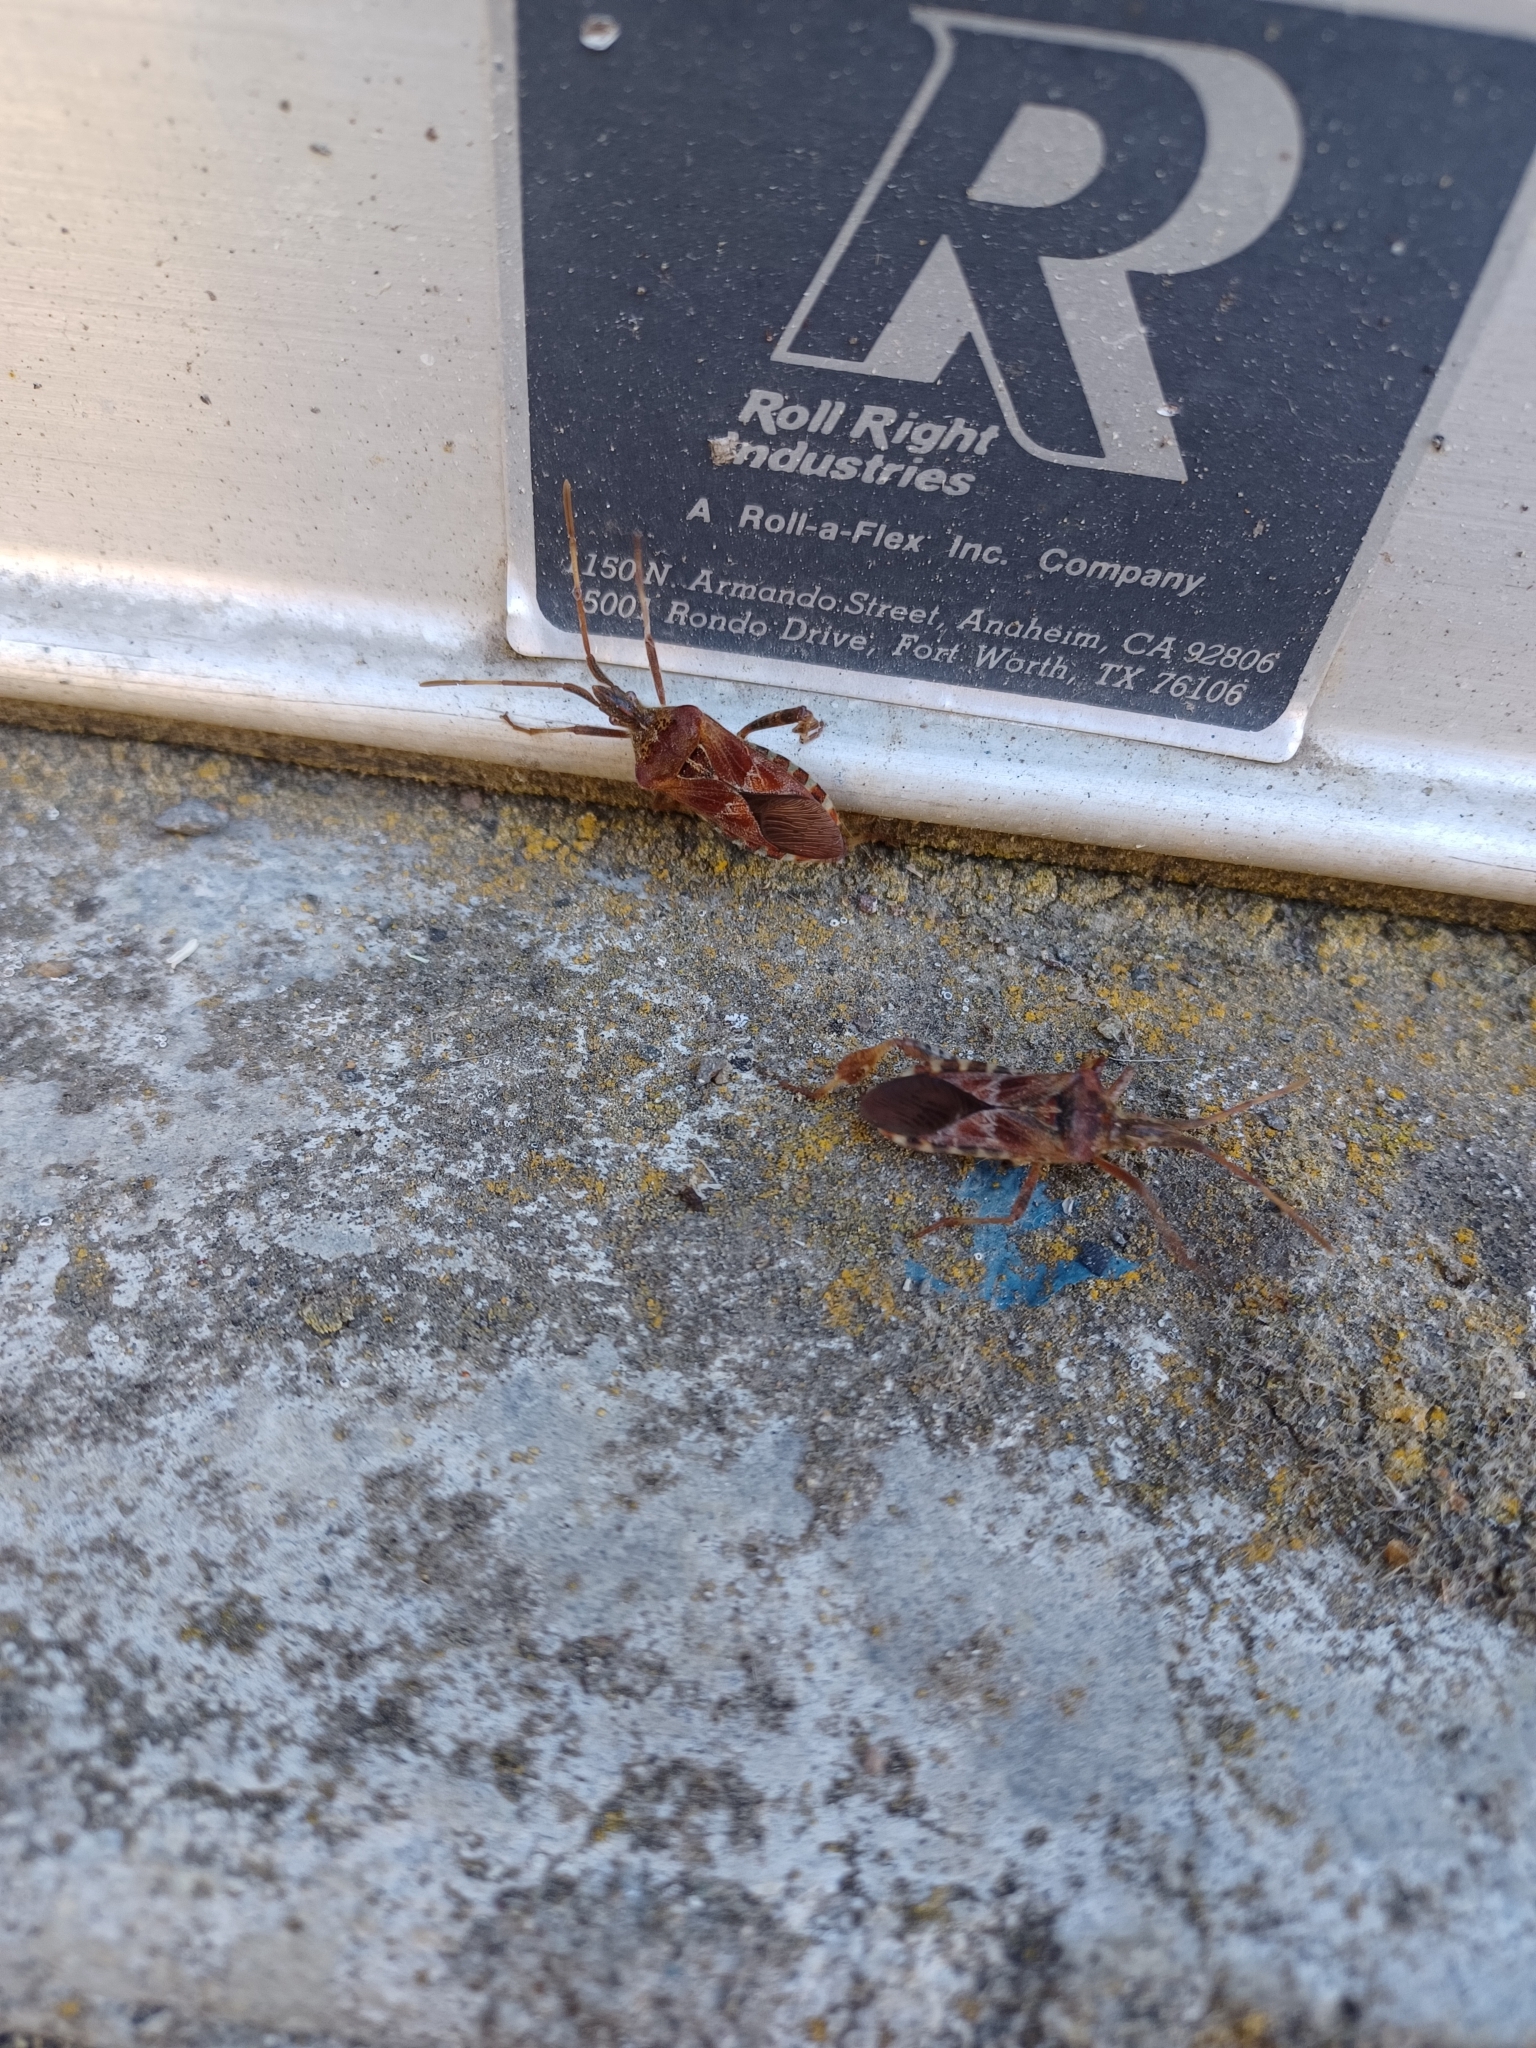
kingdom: Animalia
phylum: Arthropoda
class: Insecta
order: Hemiptera
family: Coreidae
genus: Leptoglossus
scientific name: Leptoglossus occidentalis
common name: Western conifer-seed bug
